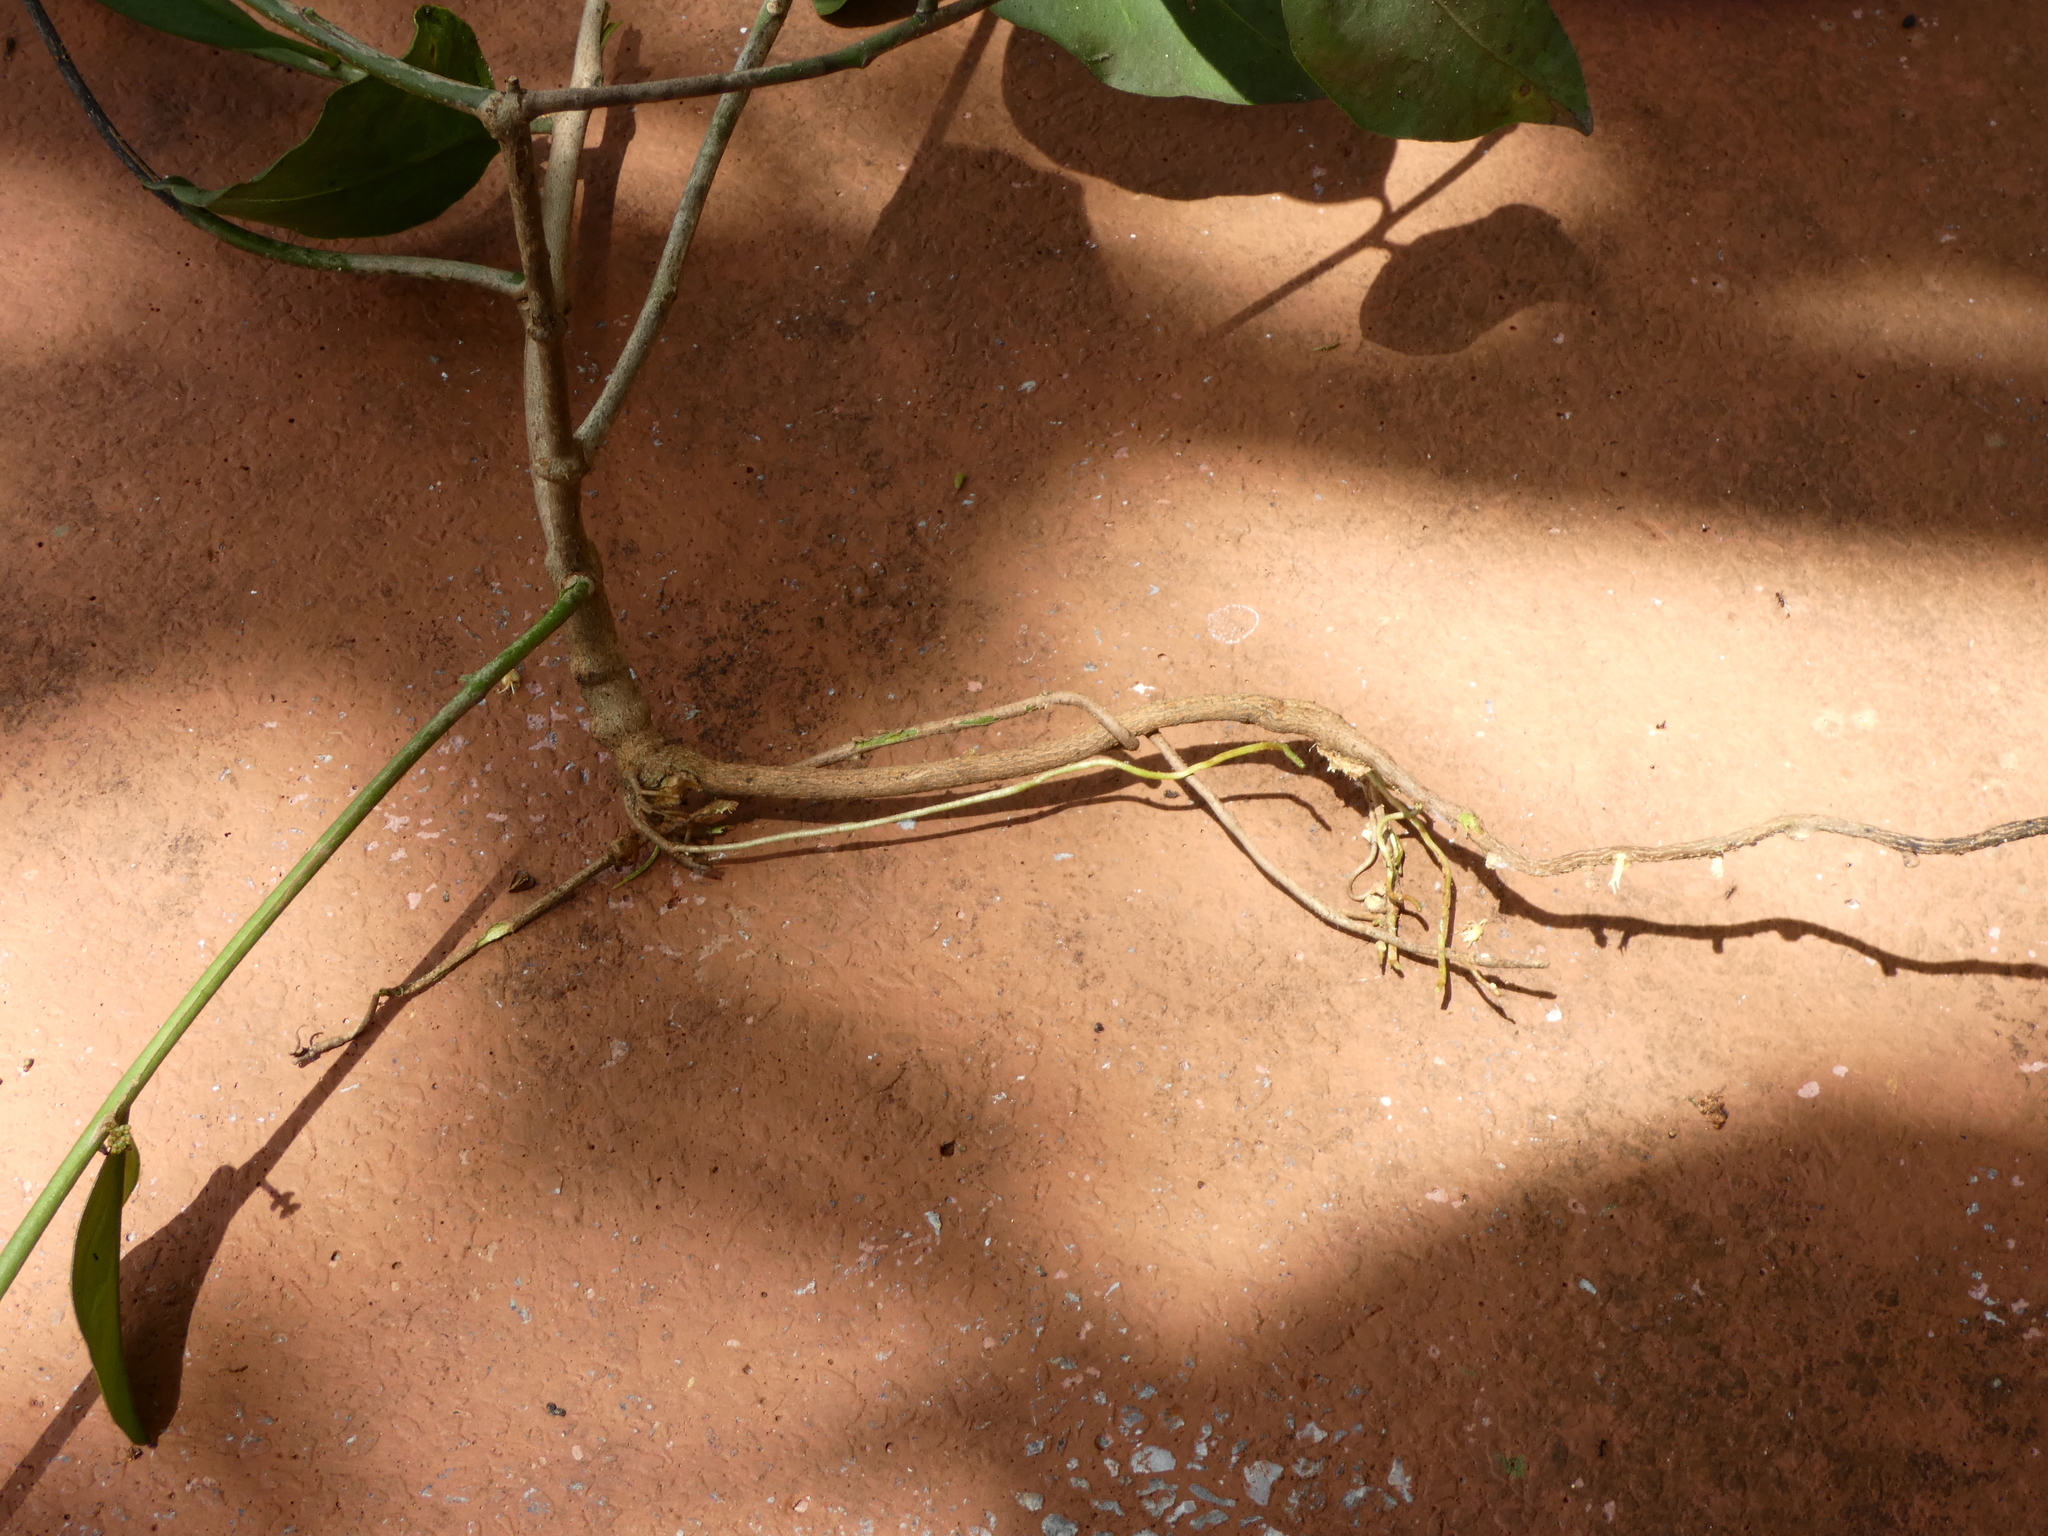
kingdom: Plantae
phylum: Tracheophyta
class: Magnoliopsida
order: Santalales
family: Loranthaceae
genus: Passovia
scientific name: Passovia pyrifolia
